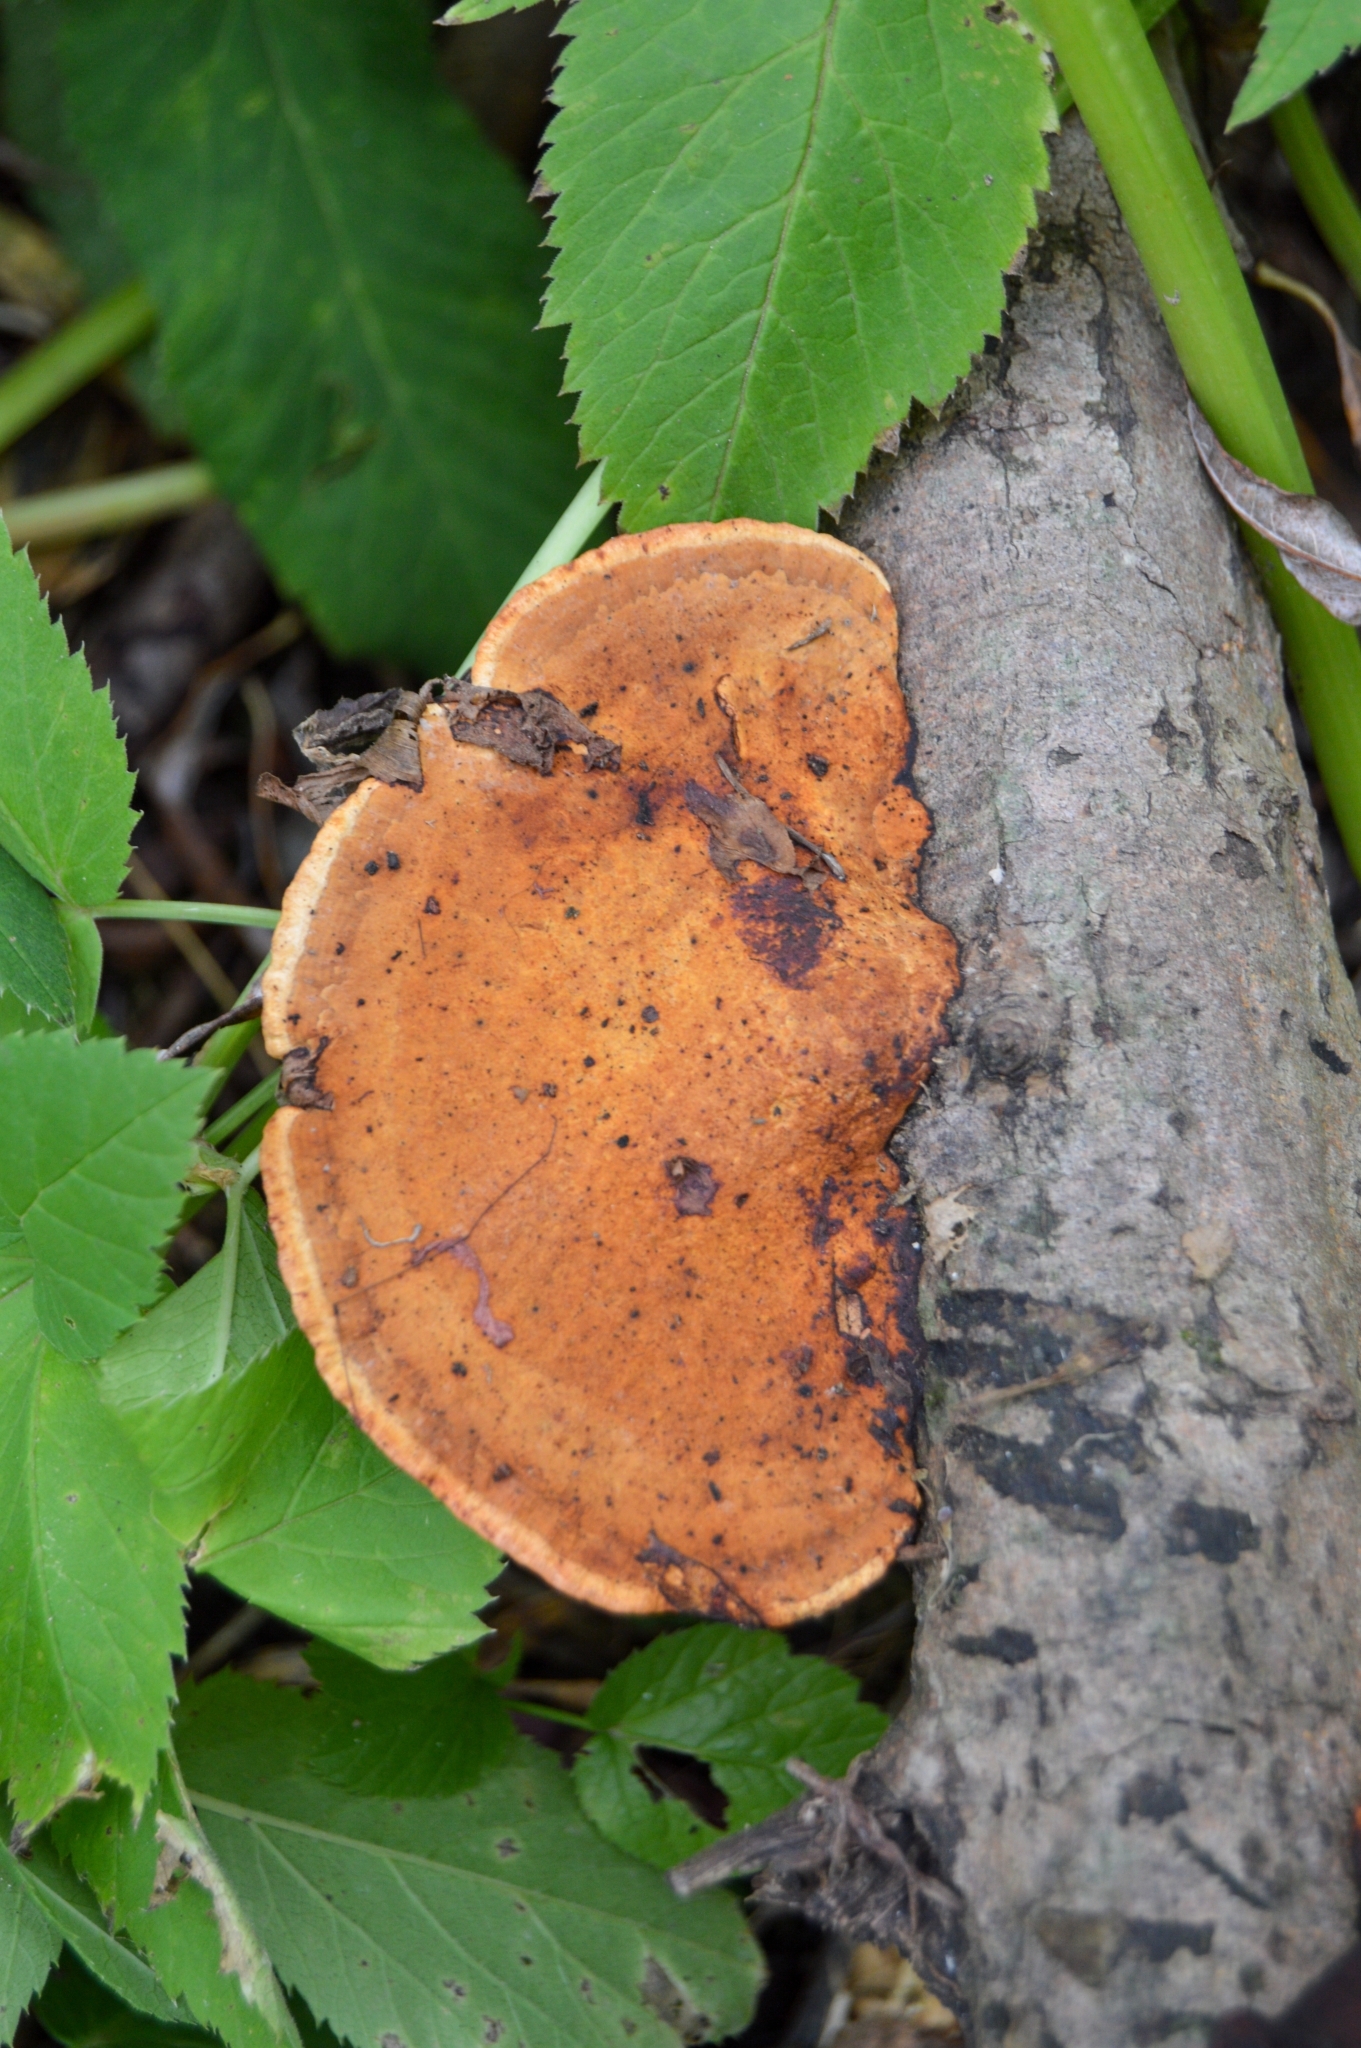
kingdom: Fungi
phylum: Basidiomycota
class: Agaricomycetes
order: Polyporales
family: Polyporaceae
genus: Daedaleopsis
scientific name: Daedaleopsis tricolor
